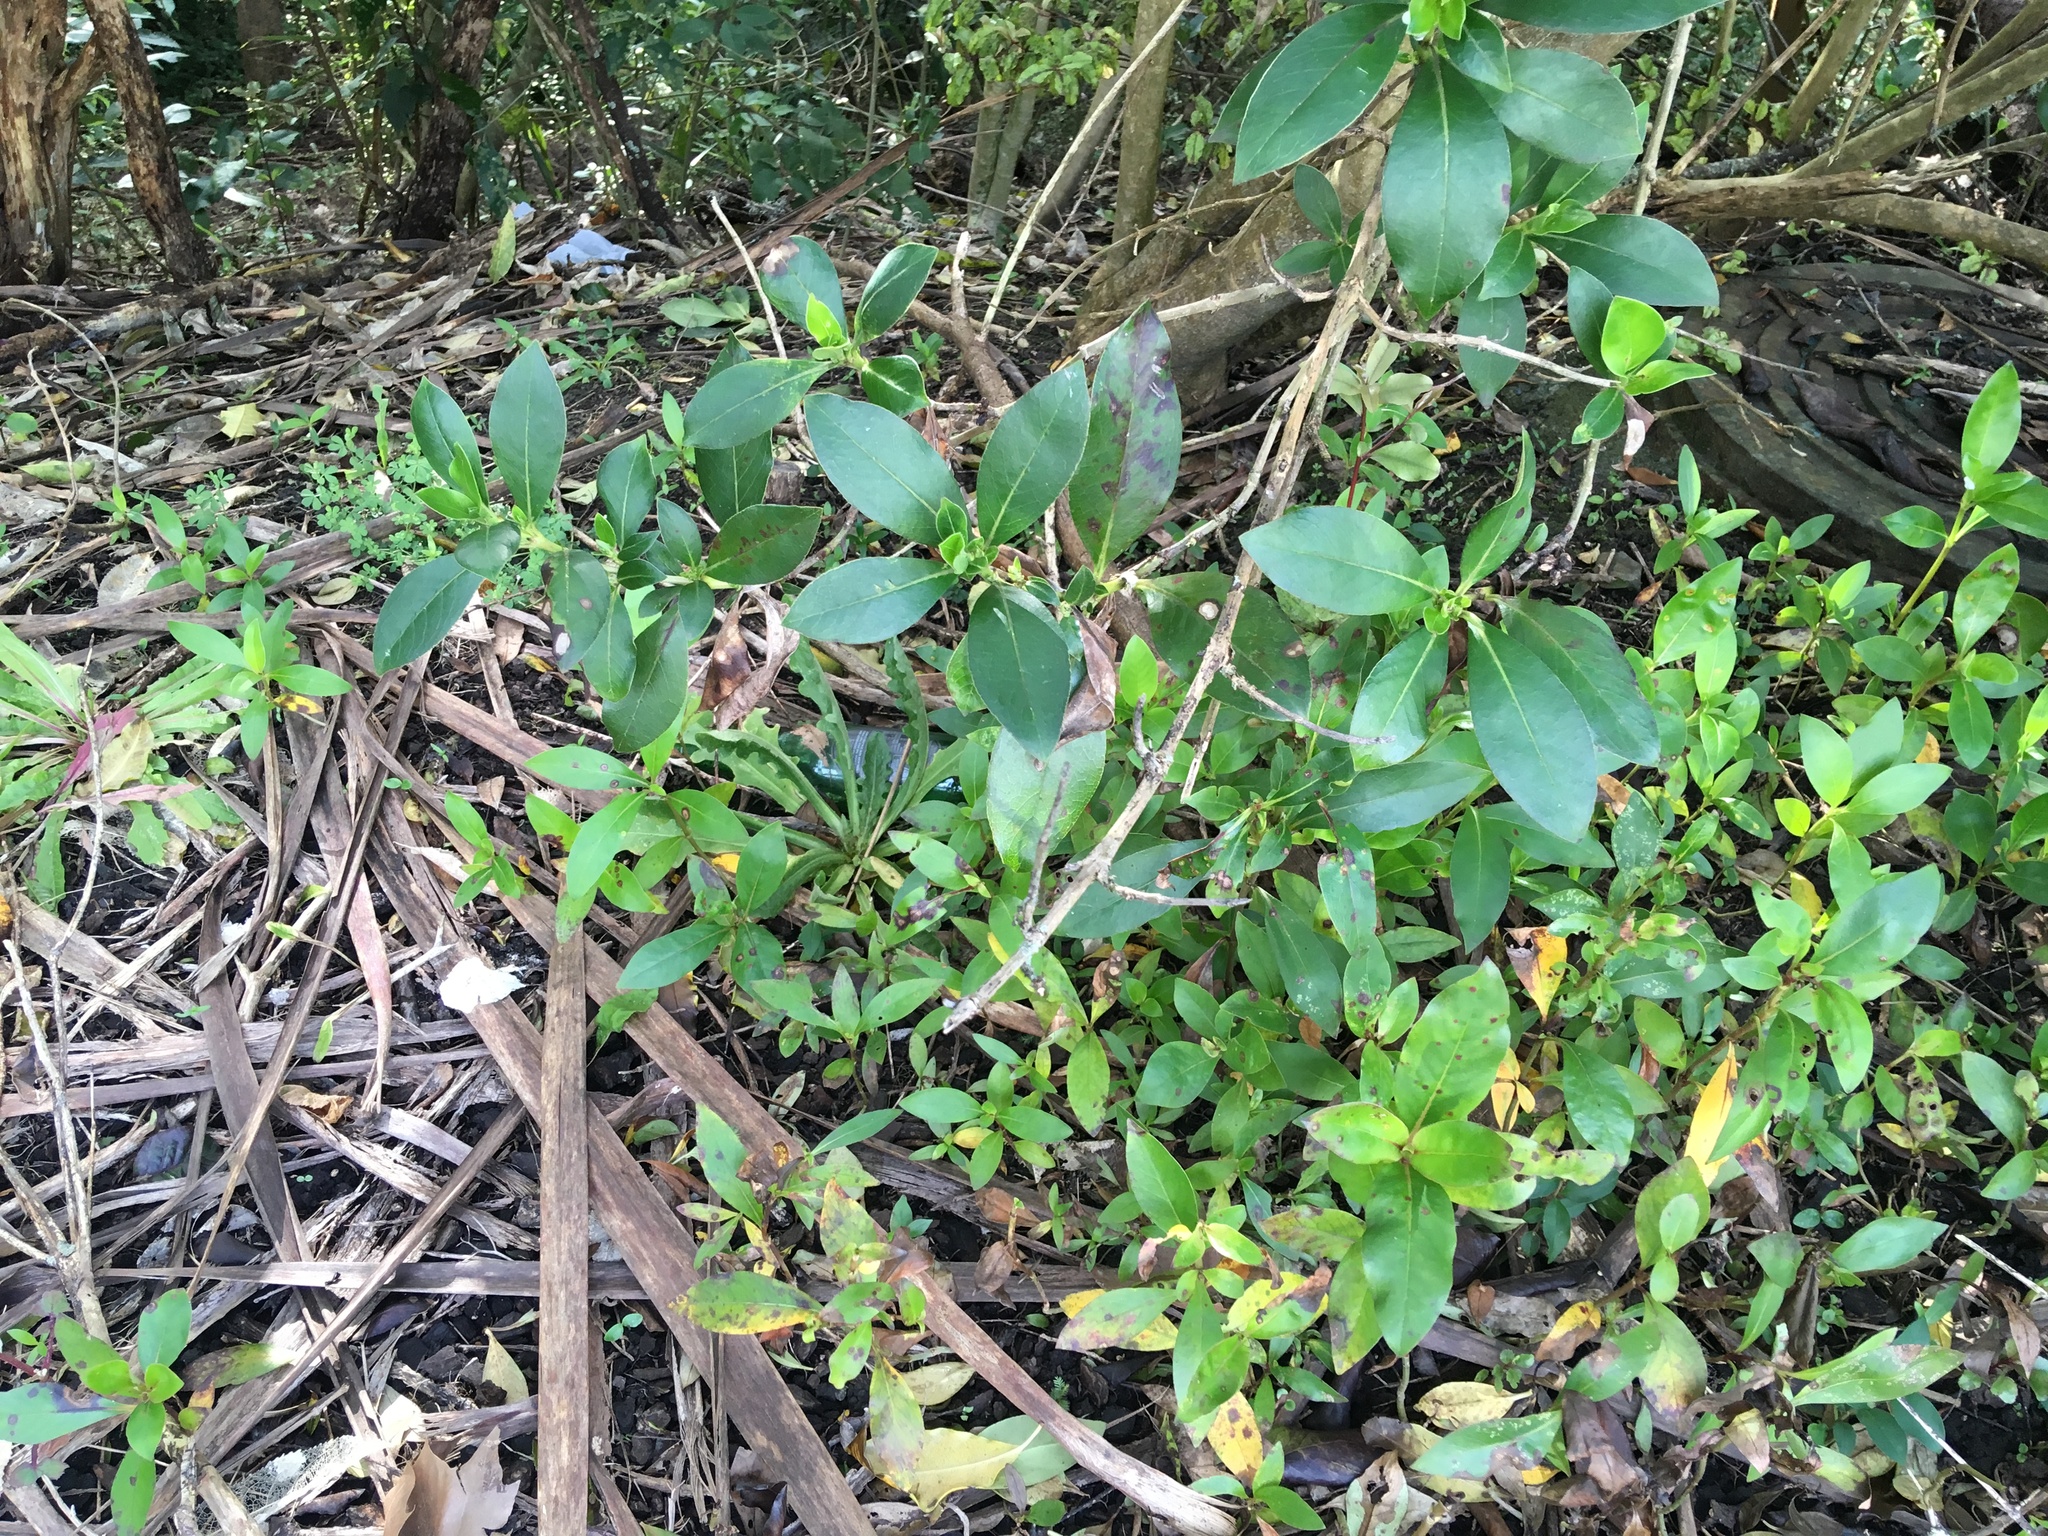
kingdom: Plantae
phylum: Tracheophyta
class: Magnoliopsida
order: Gentianales
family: Rubiaceae
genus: Coprosma
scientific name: Coprosma robusta
